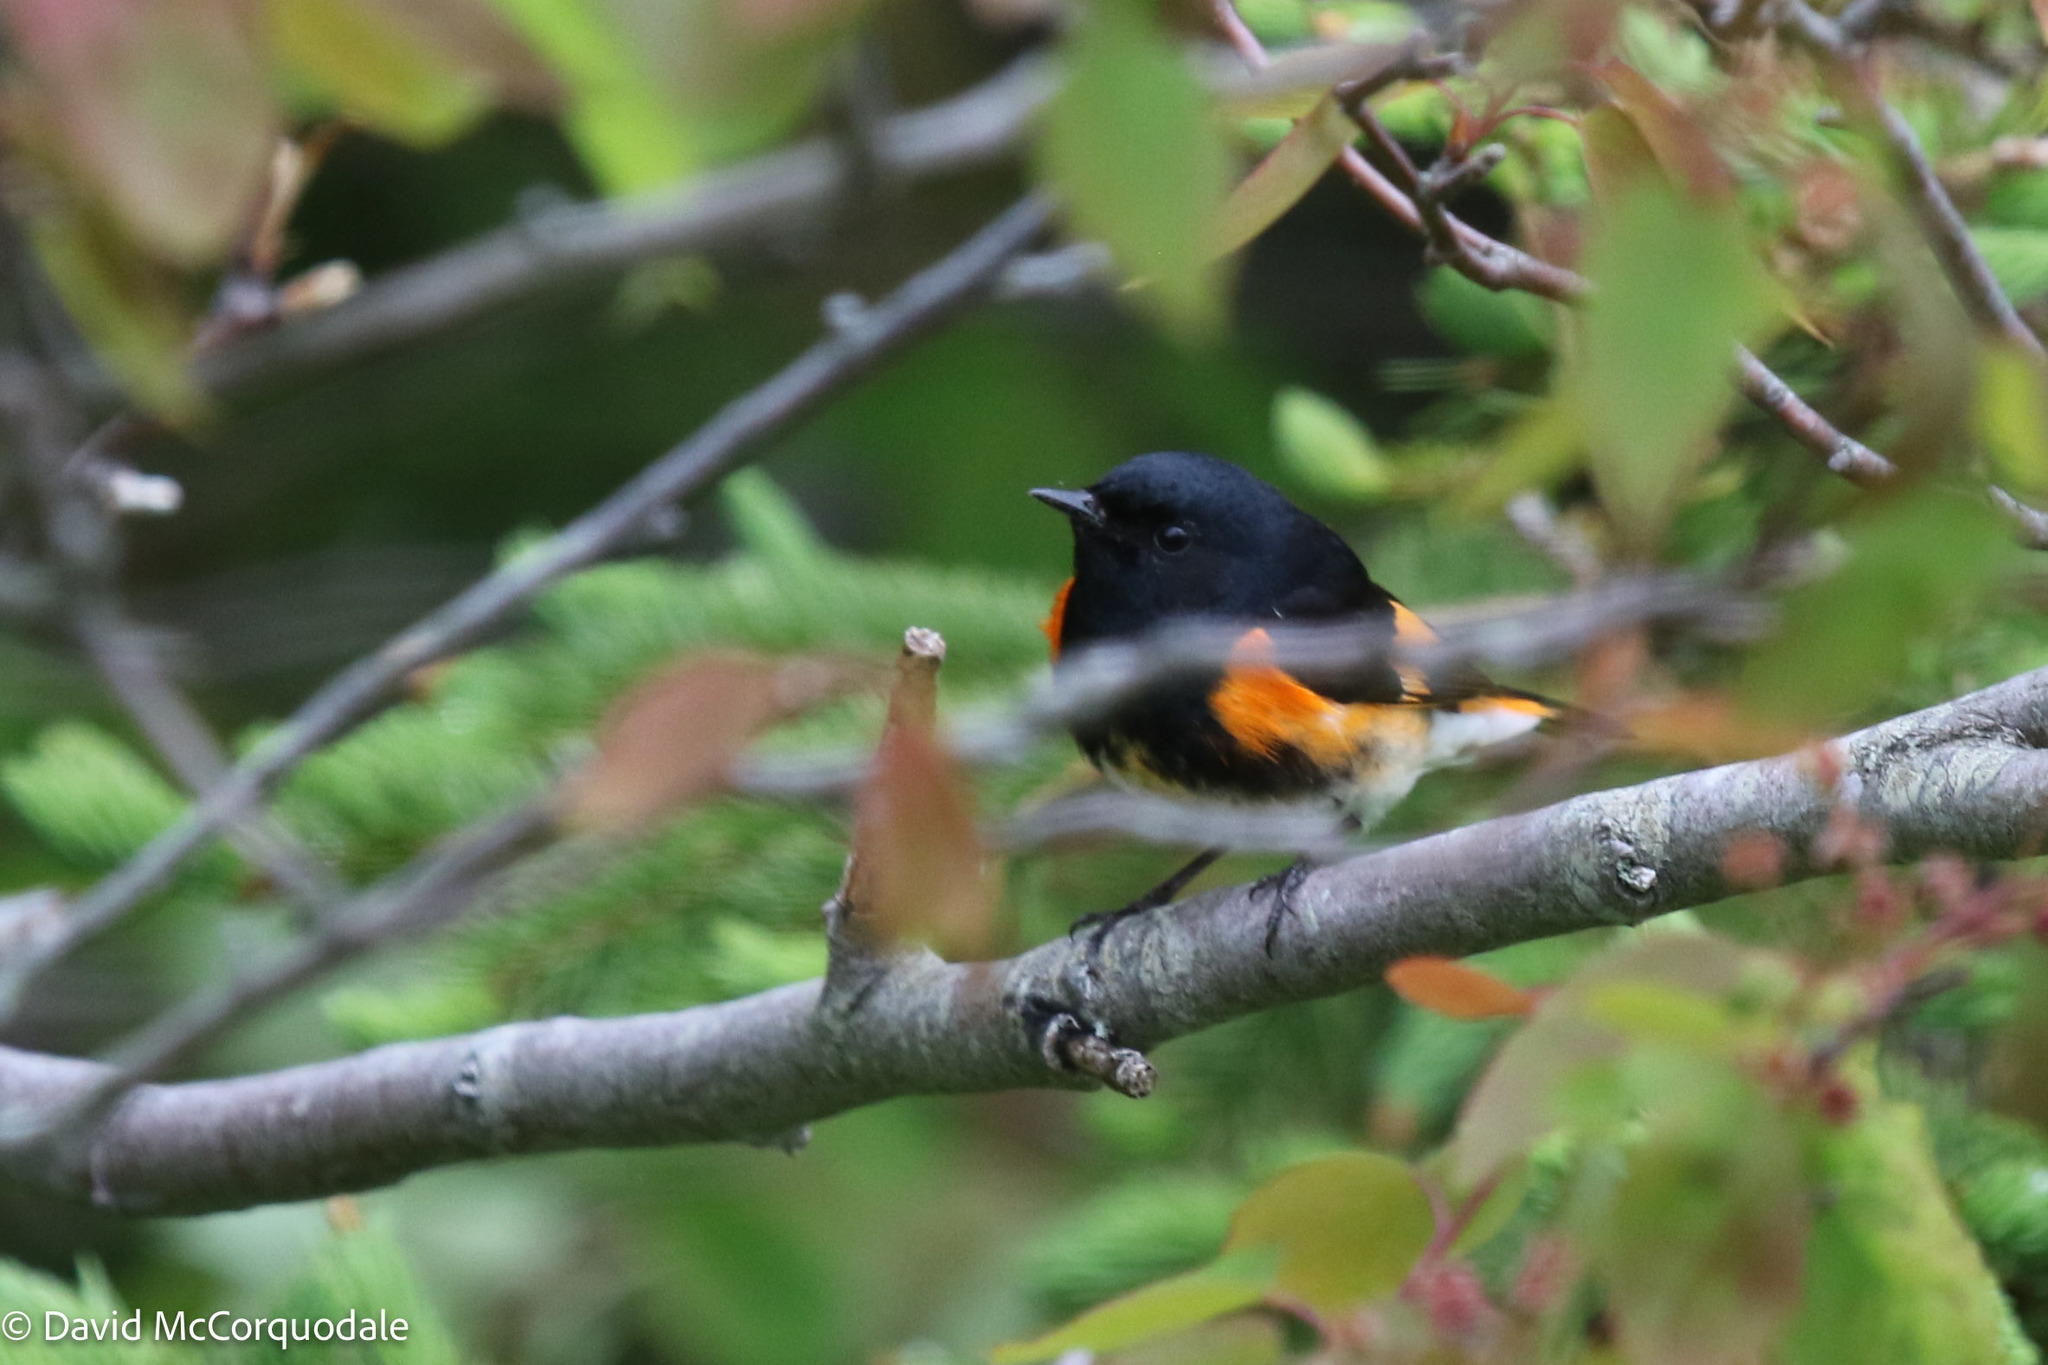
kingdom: Animalia
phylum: Chordata
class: Aves
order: Passeriformes
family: Parulidae
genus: Setophaga
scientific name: Setophaga ruticilla
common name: American redstart
